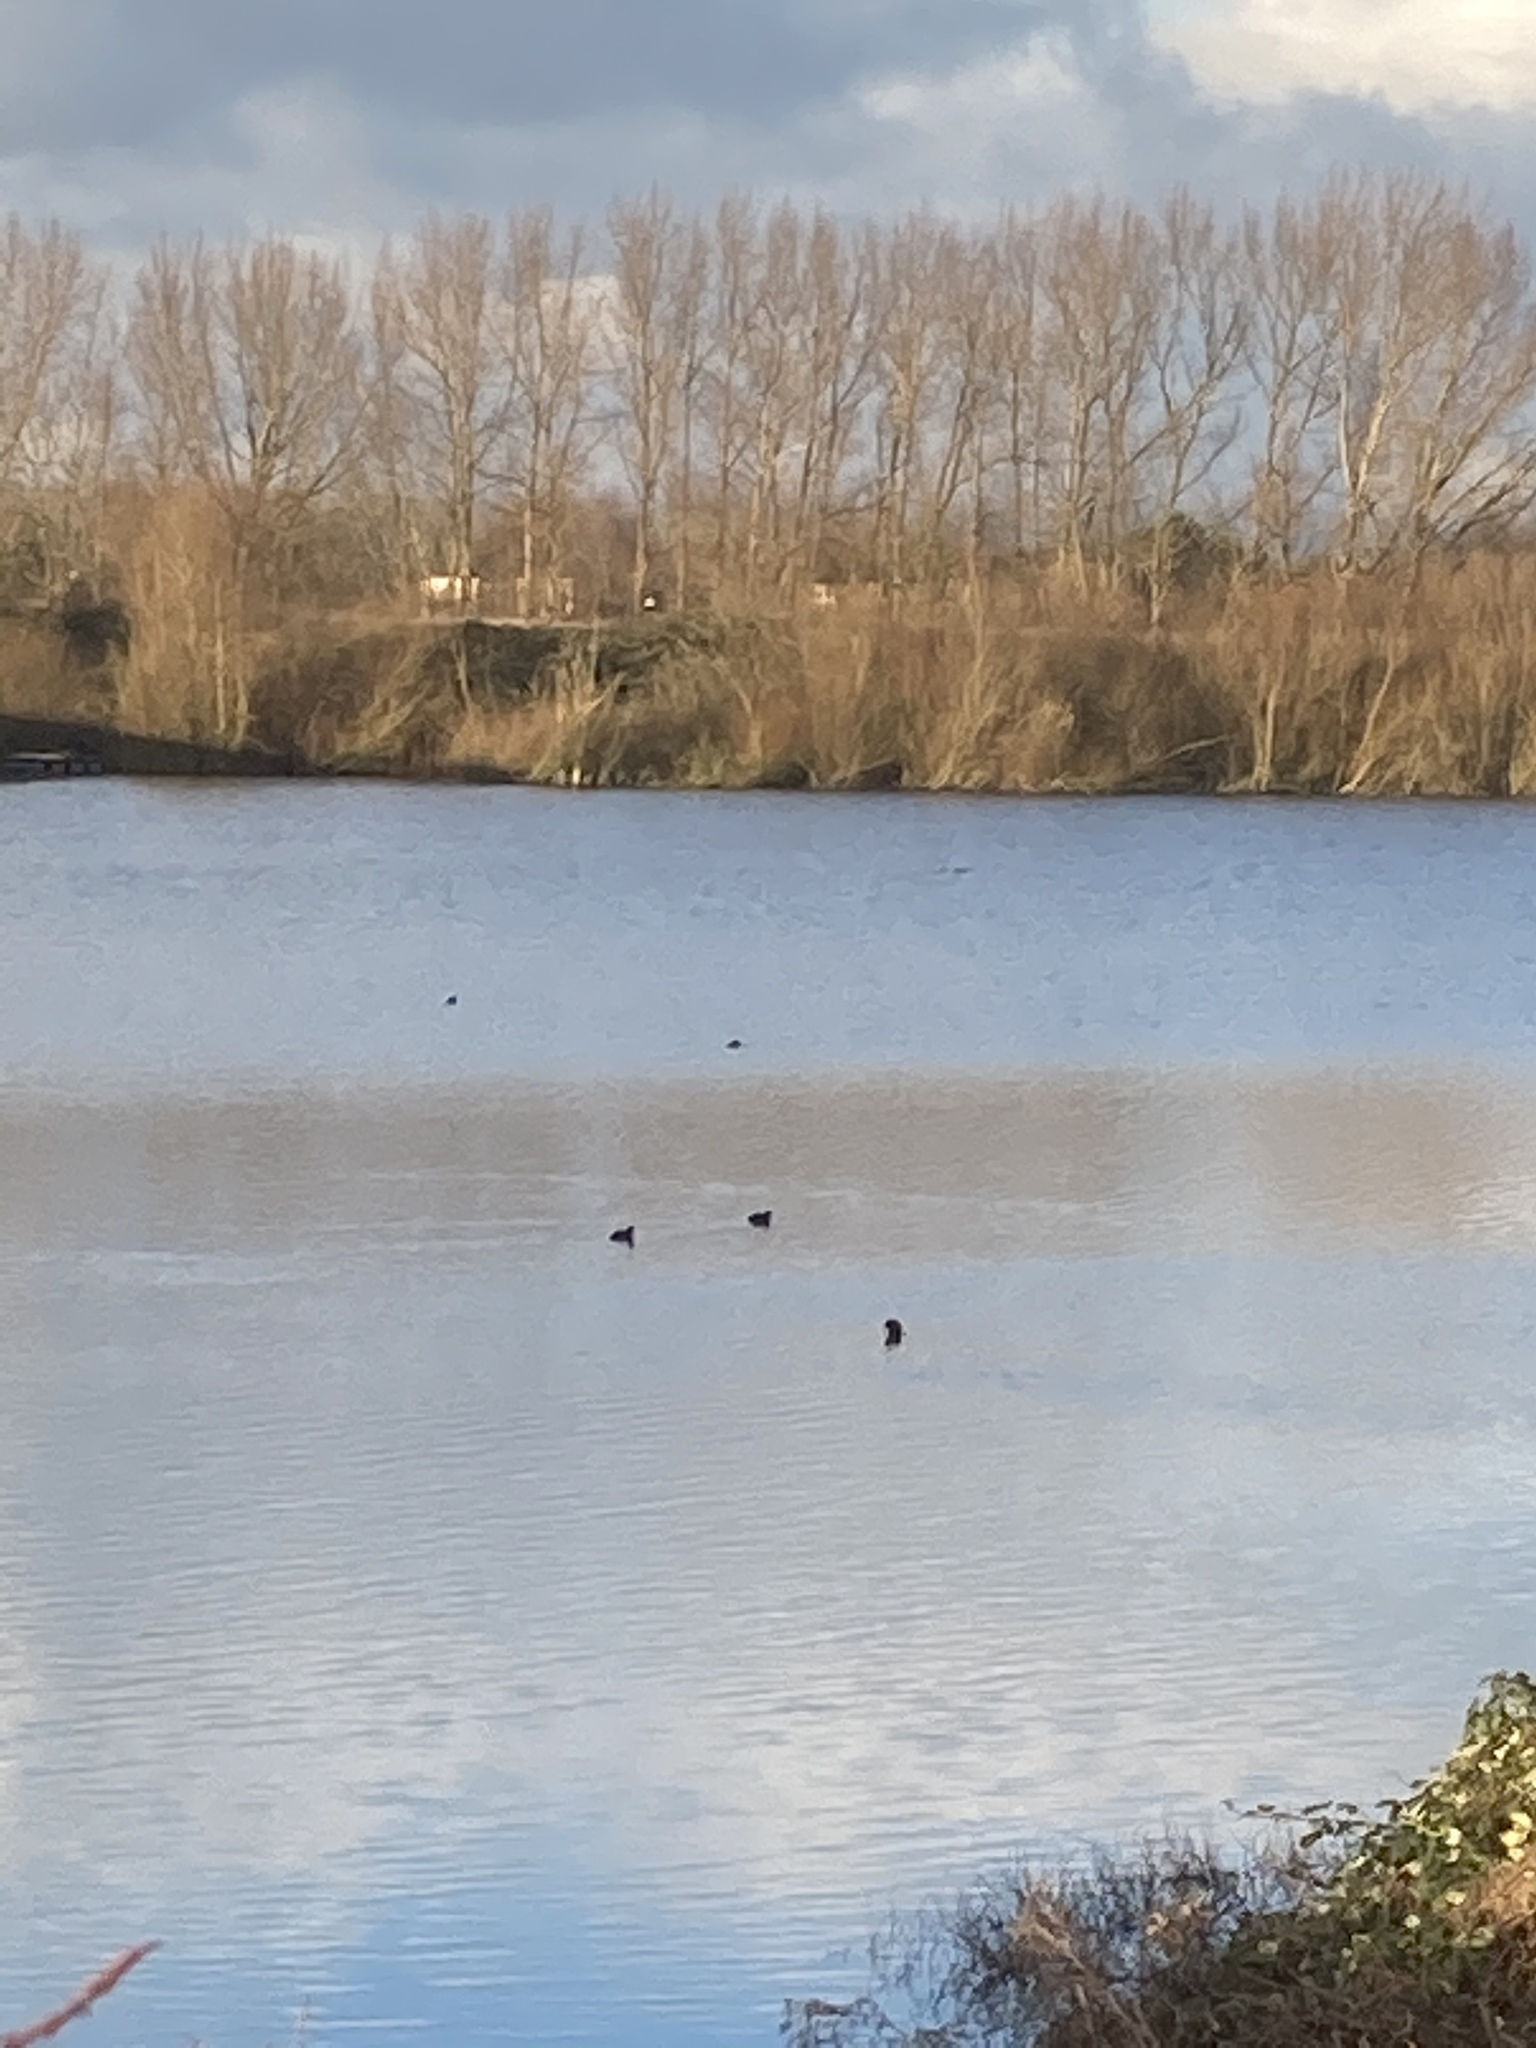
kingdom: Animalia
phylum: Chordata
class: Aves
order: Gruiformes
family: Rallidae
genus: Fulica
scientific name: Fulica atra
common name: Eurasian coot
